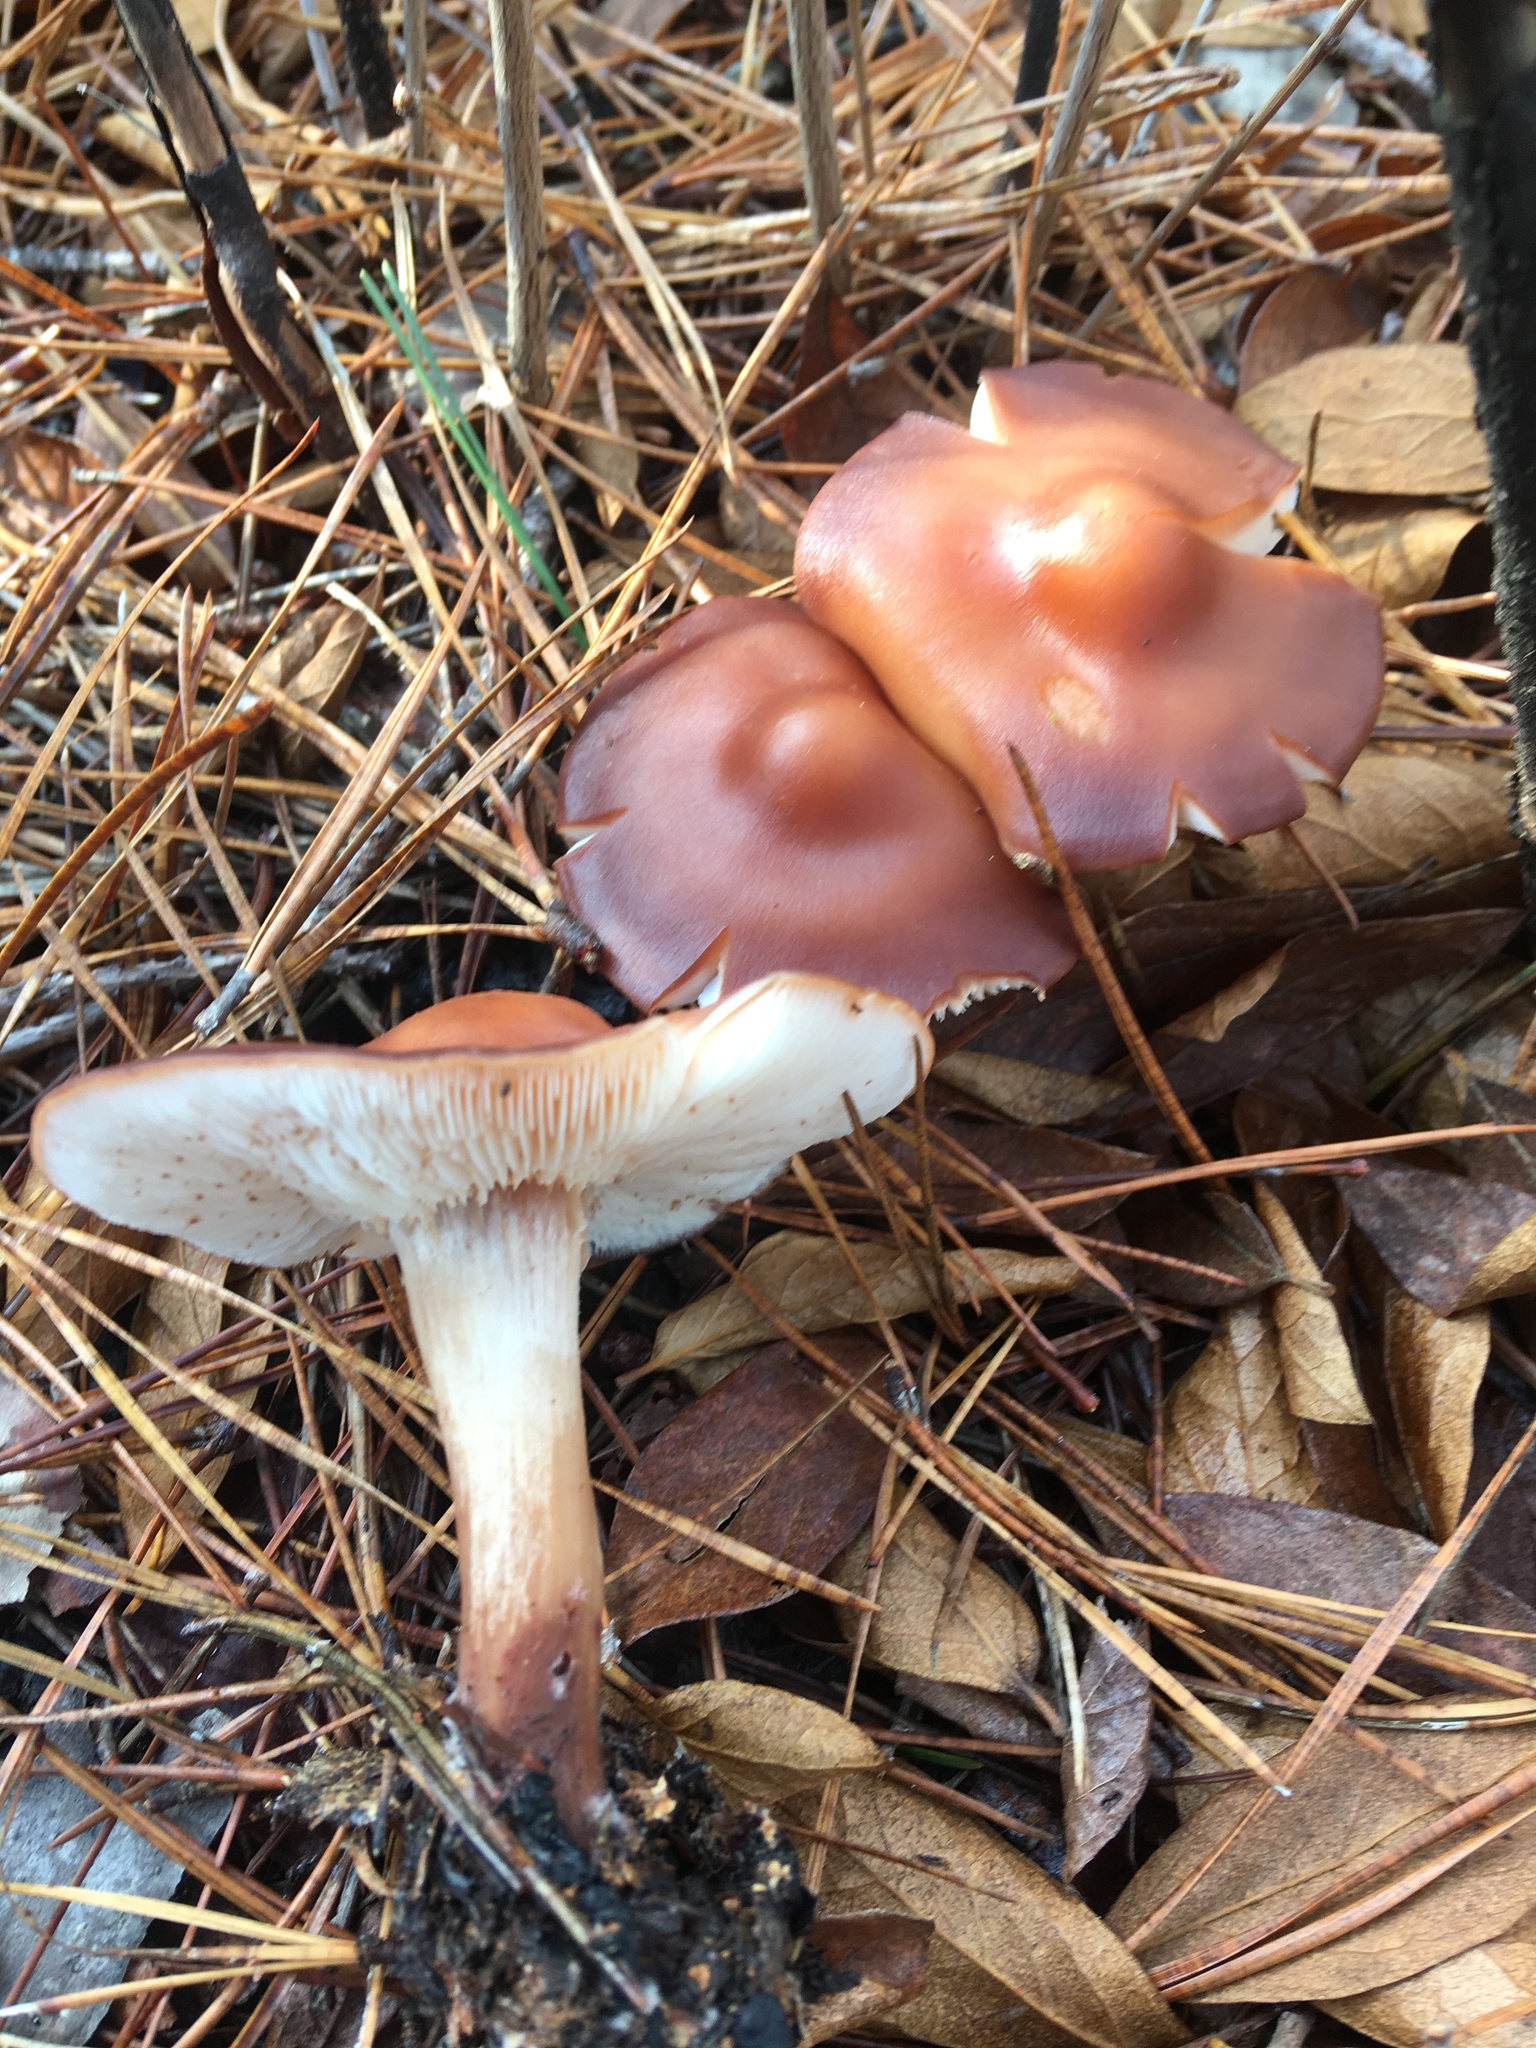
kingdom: Fungi
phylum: Basidiomycota
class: Agaricomycetes
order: Agaricales
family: Omphalotaceae
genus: Rhodocollybia
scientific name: Rhodocollybia butyracea
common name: Butter cap
